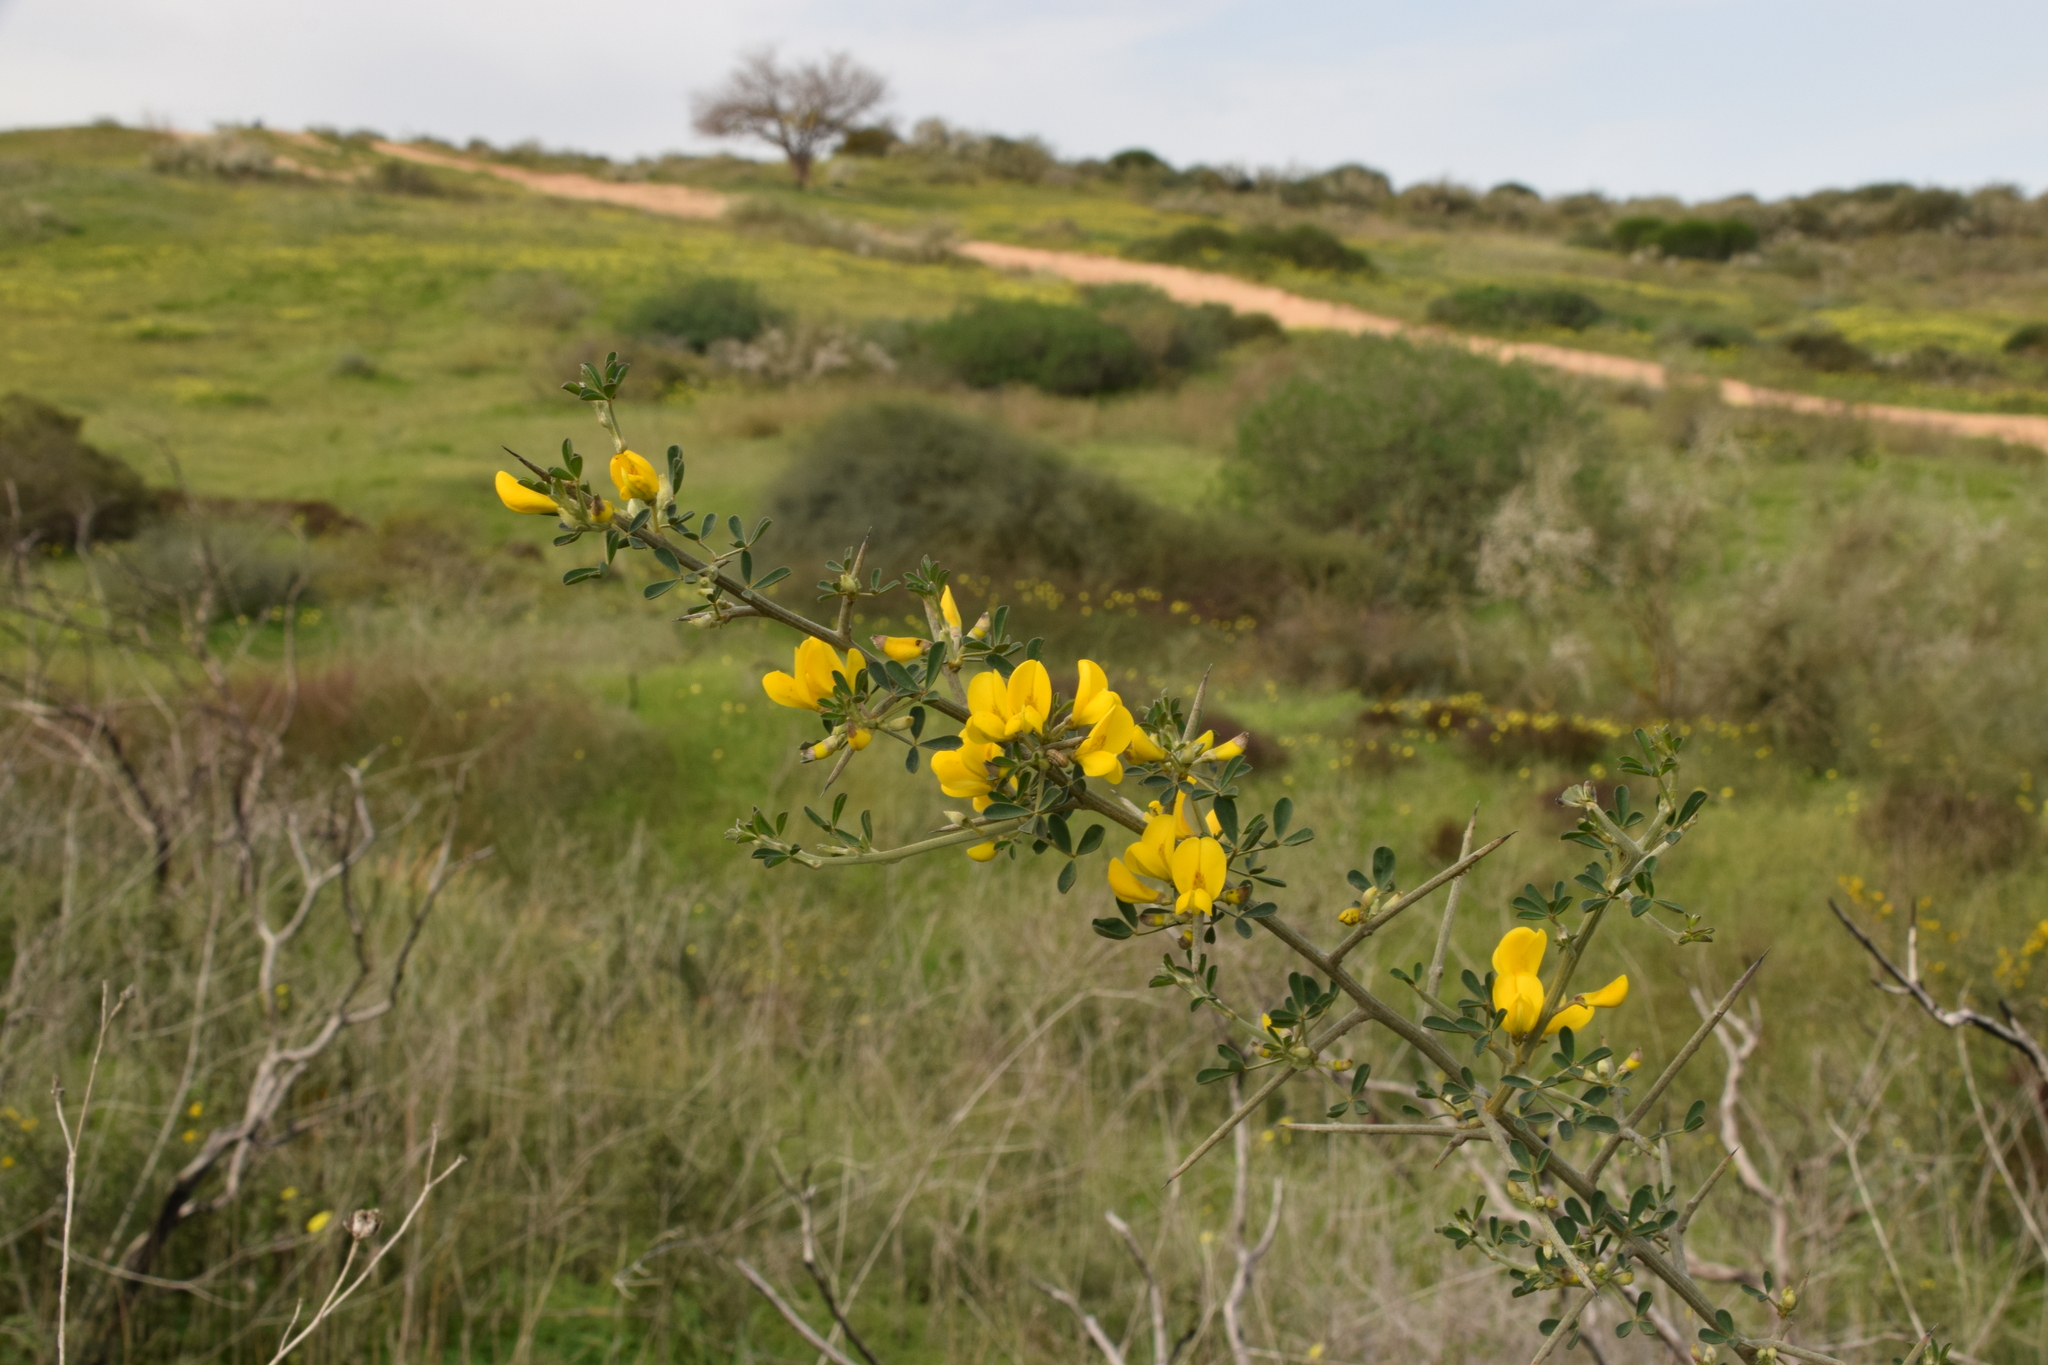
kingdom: Plantae
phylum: Tracheophyta
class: Magnoliopsida
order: Fabales
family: Fabaceae
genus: Calicotome
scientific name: Calicotome villosa
